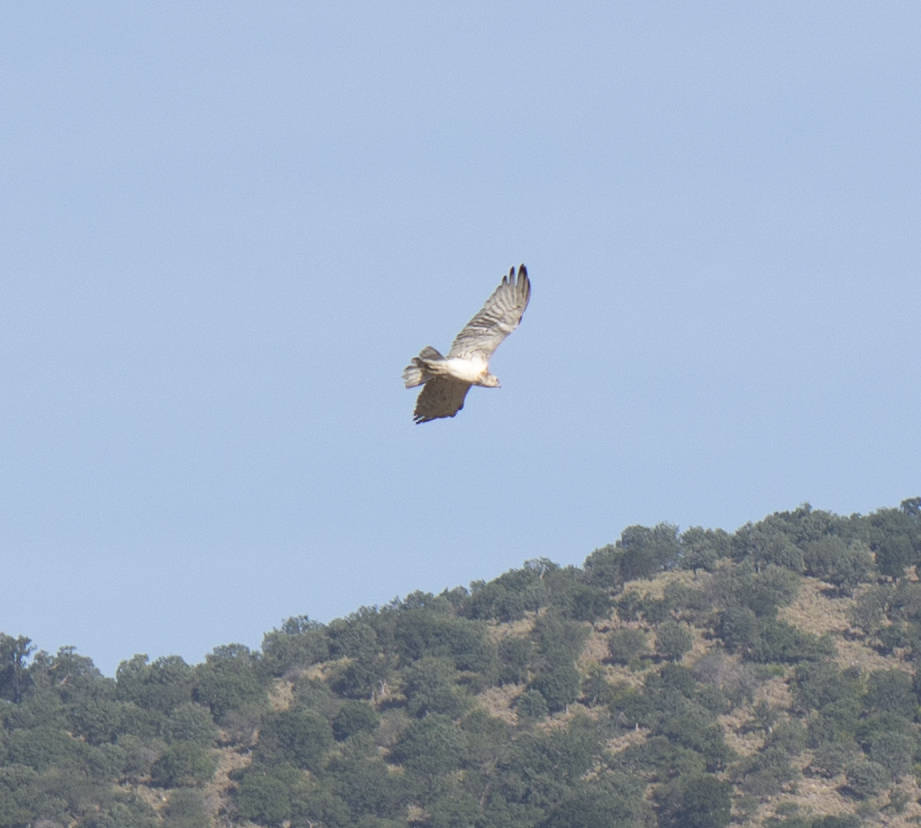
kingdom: Animalia
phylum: Chordata
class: Aves
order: Accipitriformes
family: Accipitridae
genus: Circaetus
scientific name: Circaetus gallicus
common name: Short-toed snake eagle
